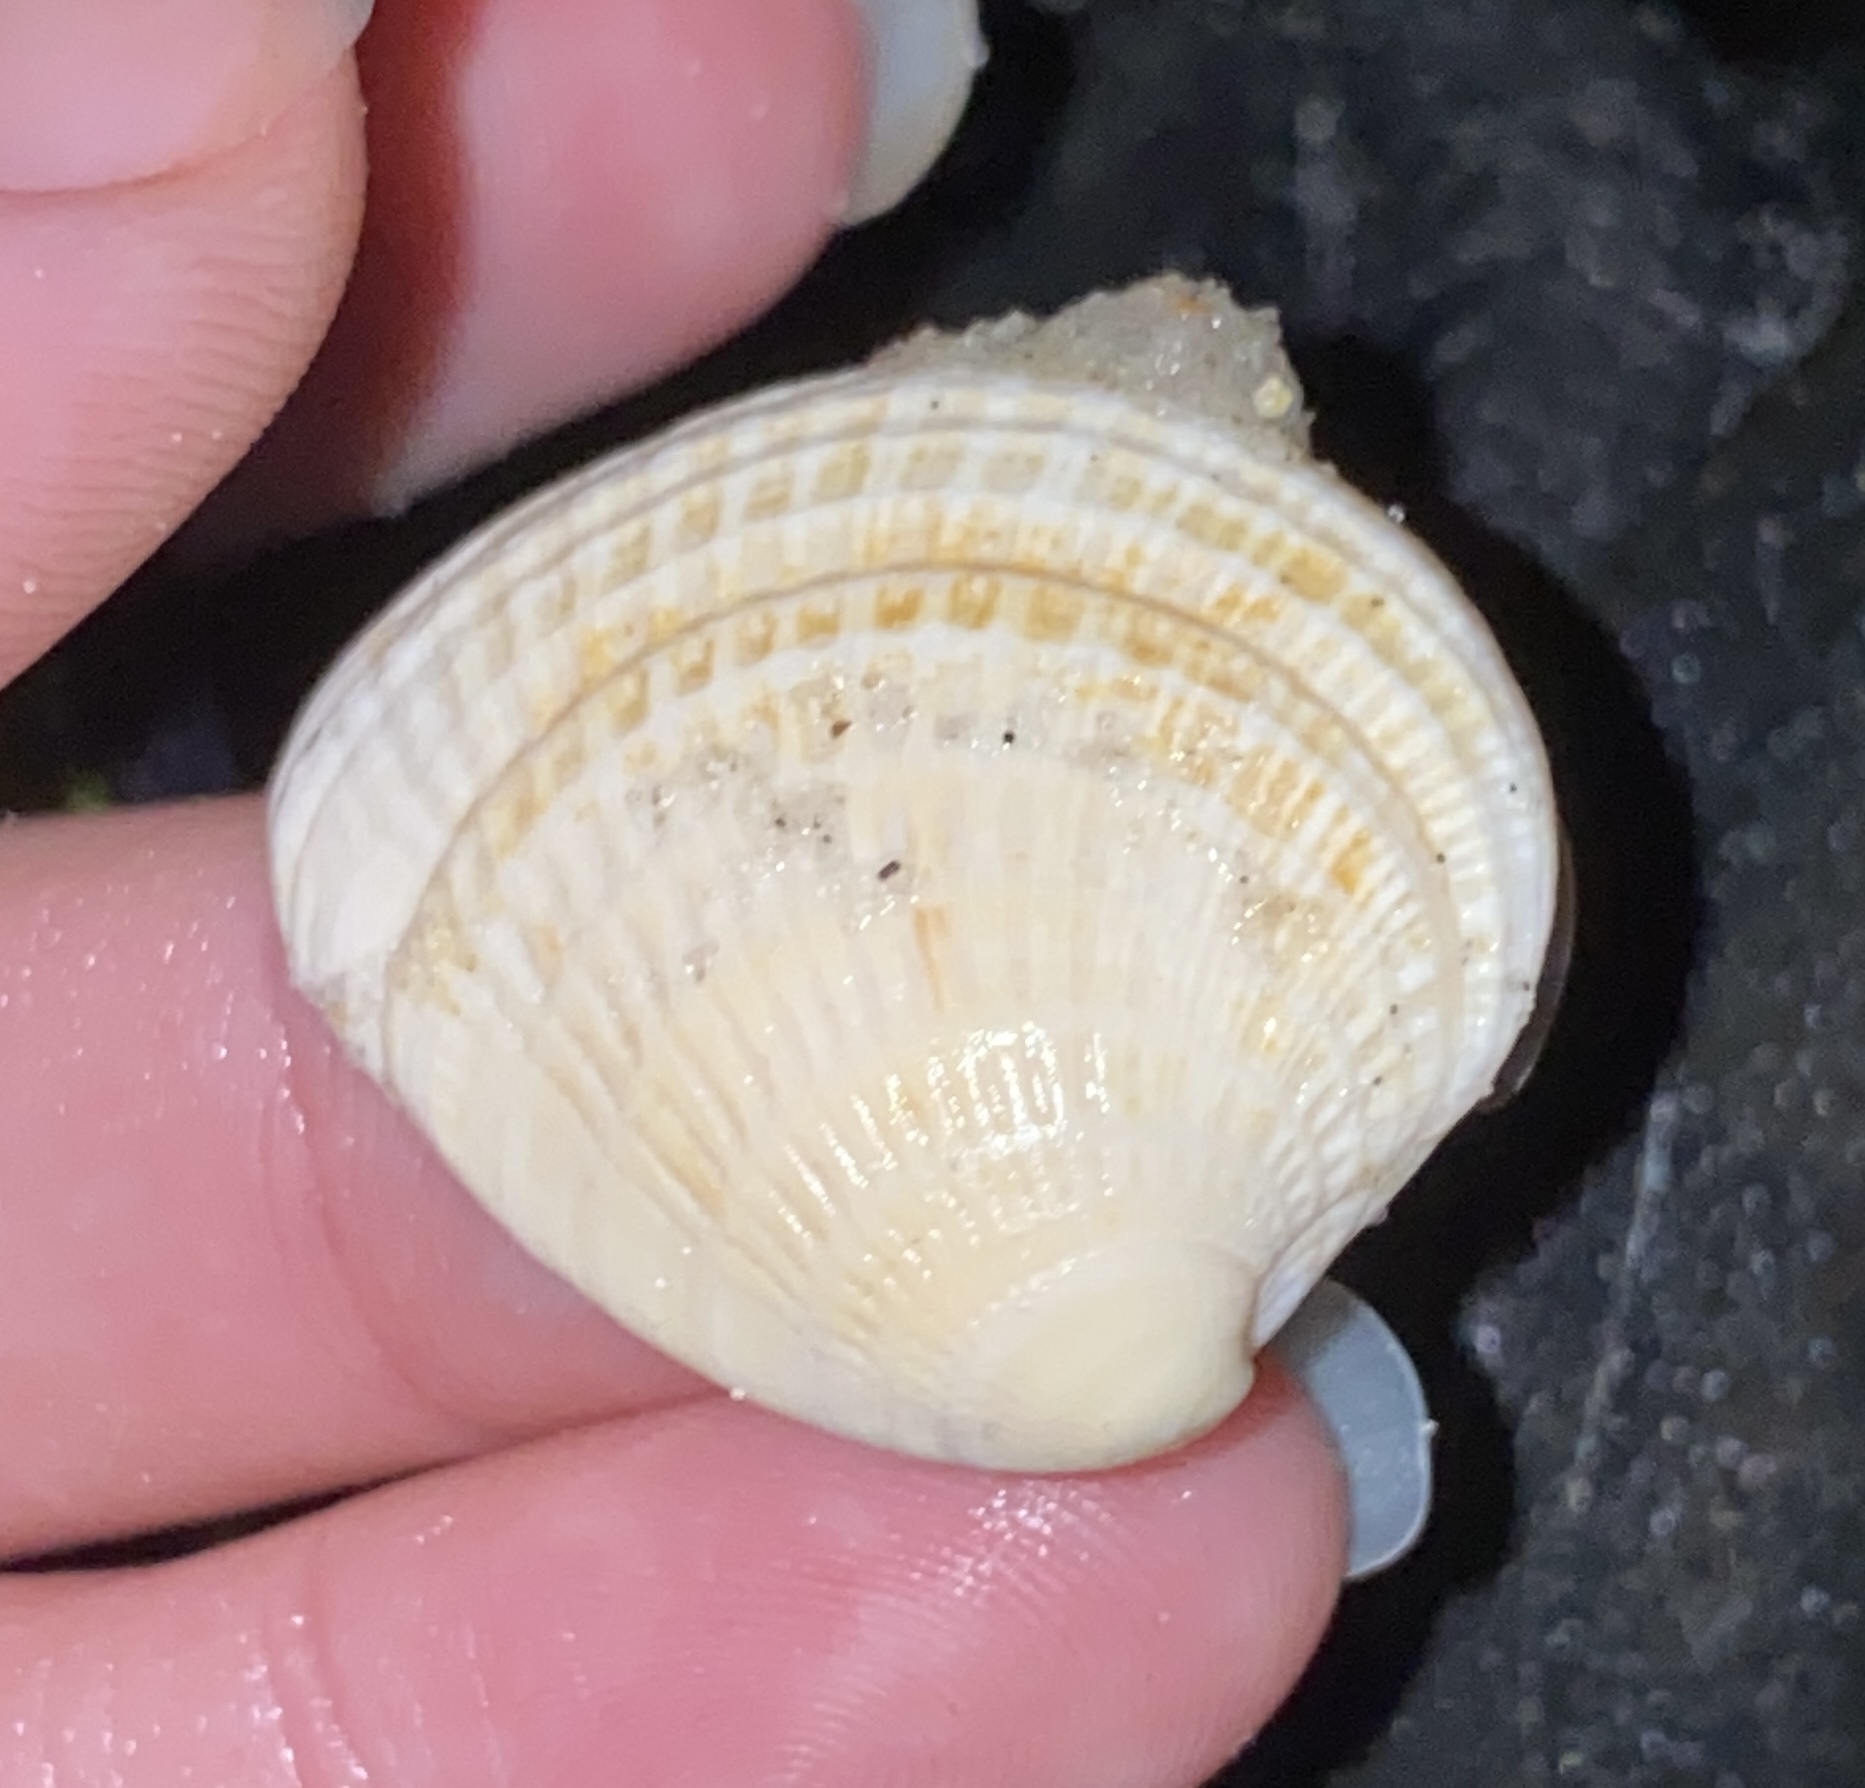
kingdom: Animalia
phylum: Mollusca
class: Bivalvia
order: Venerida
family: Veneridae
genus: Chione
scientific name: Chione elevata
